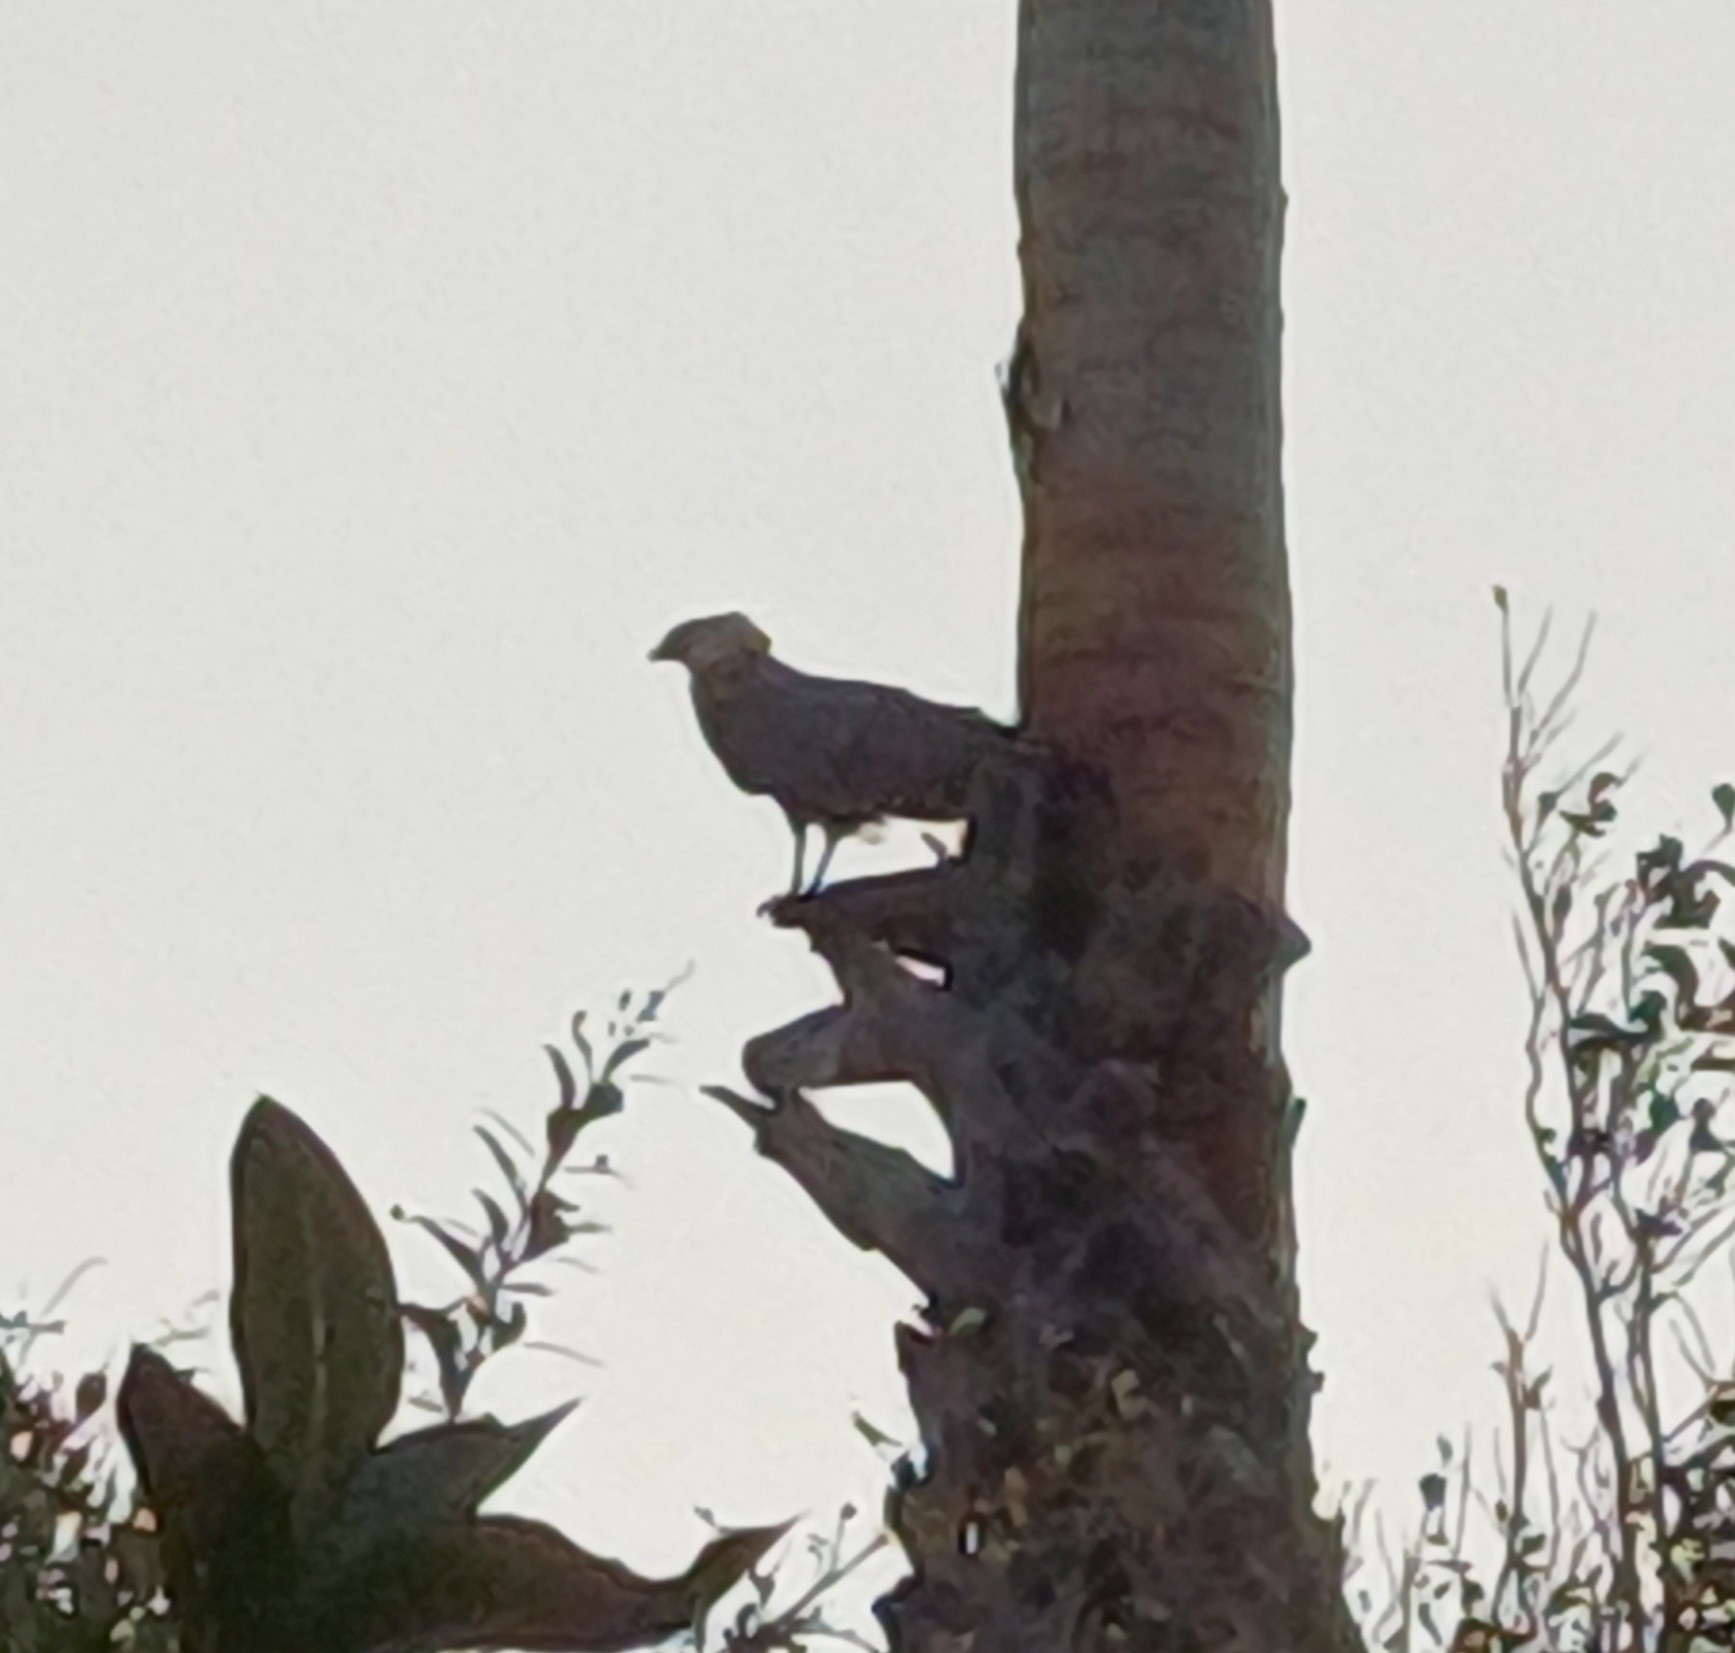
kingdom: Animalia
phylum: Chordata
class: Aves
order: Accipitriformes
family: Accipitridae
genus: Polyboroides
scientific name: Polyboroides typus
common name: African harrier-hawk
